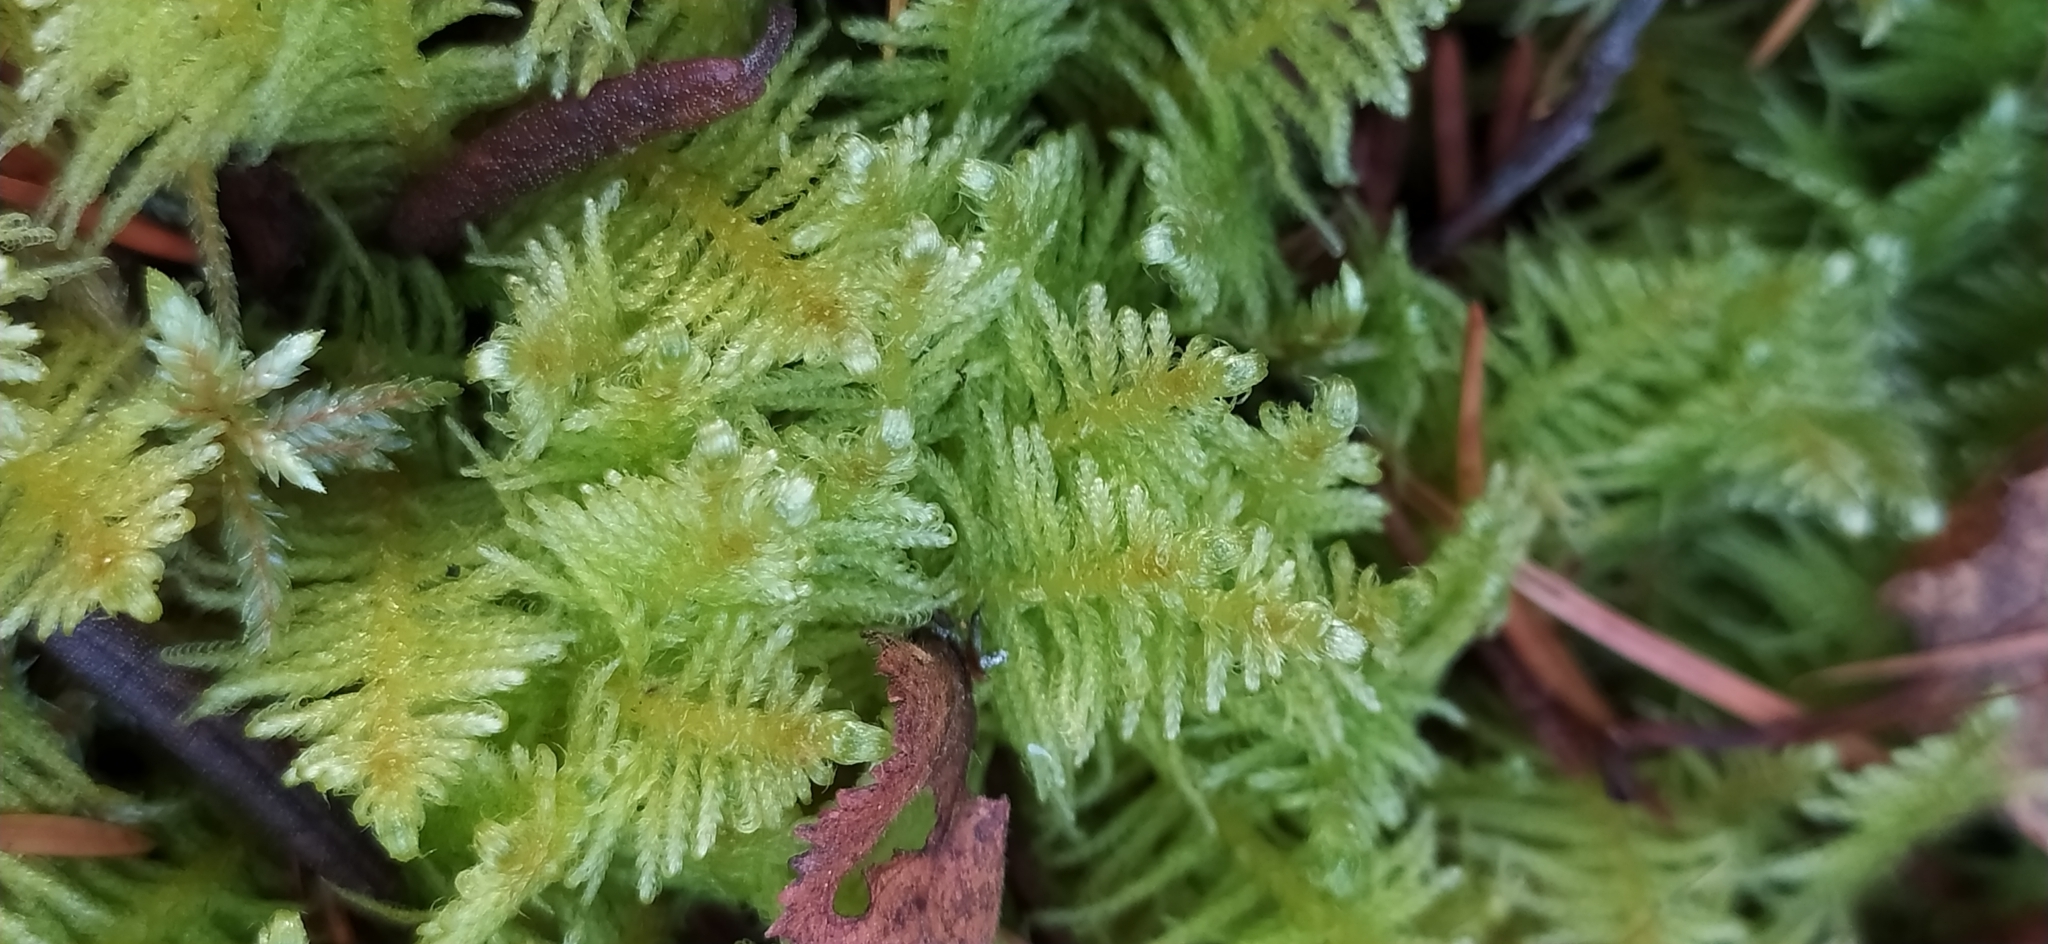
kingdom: Plantae
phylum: Bryophyta
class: Bryopsida
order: Hypnales
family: Pylaisiaceae
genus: Ptilium
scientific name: Ptilium crista-castrensis
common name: Knight's plume moss
